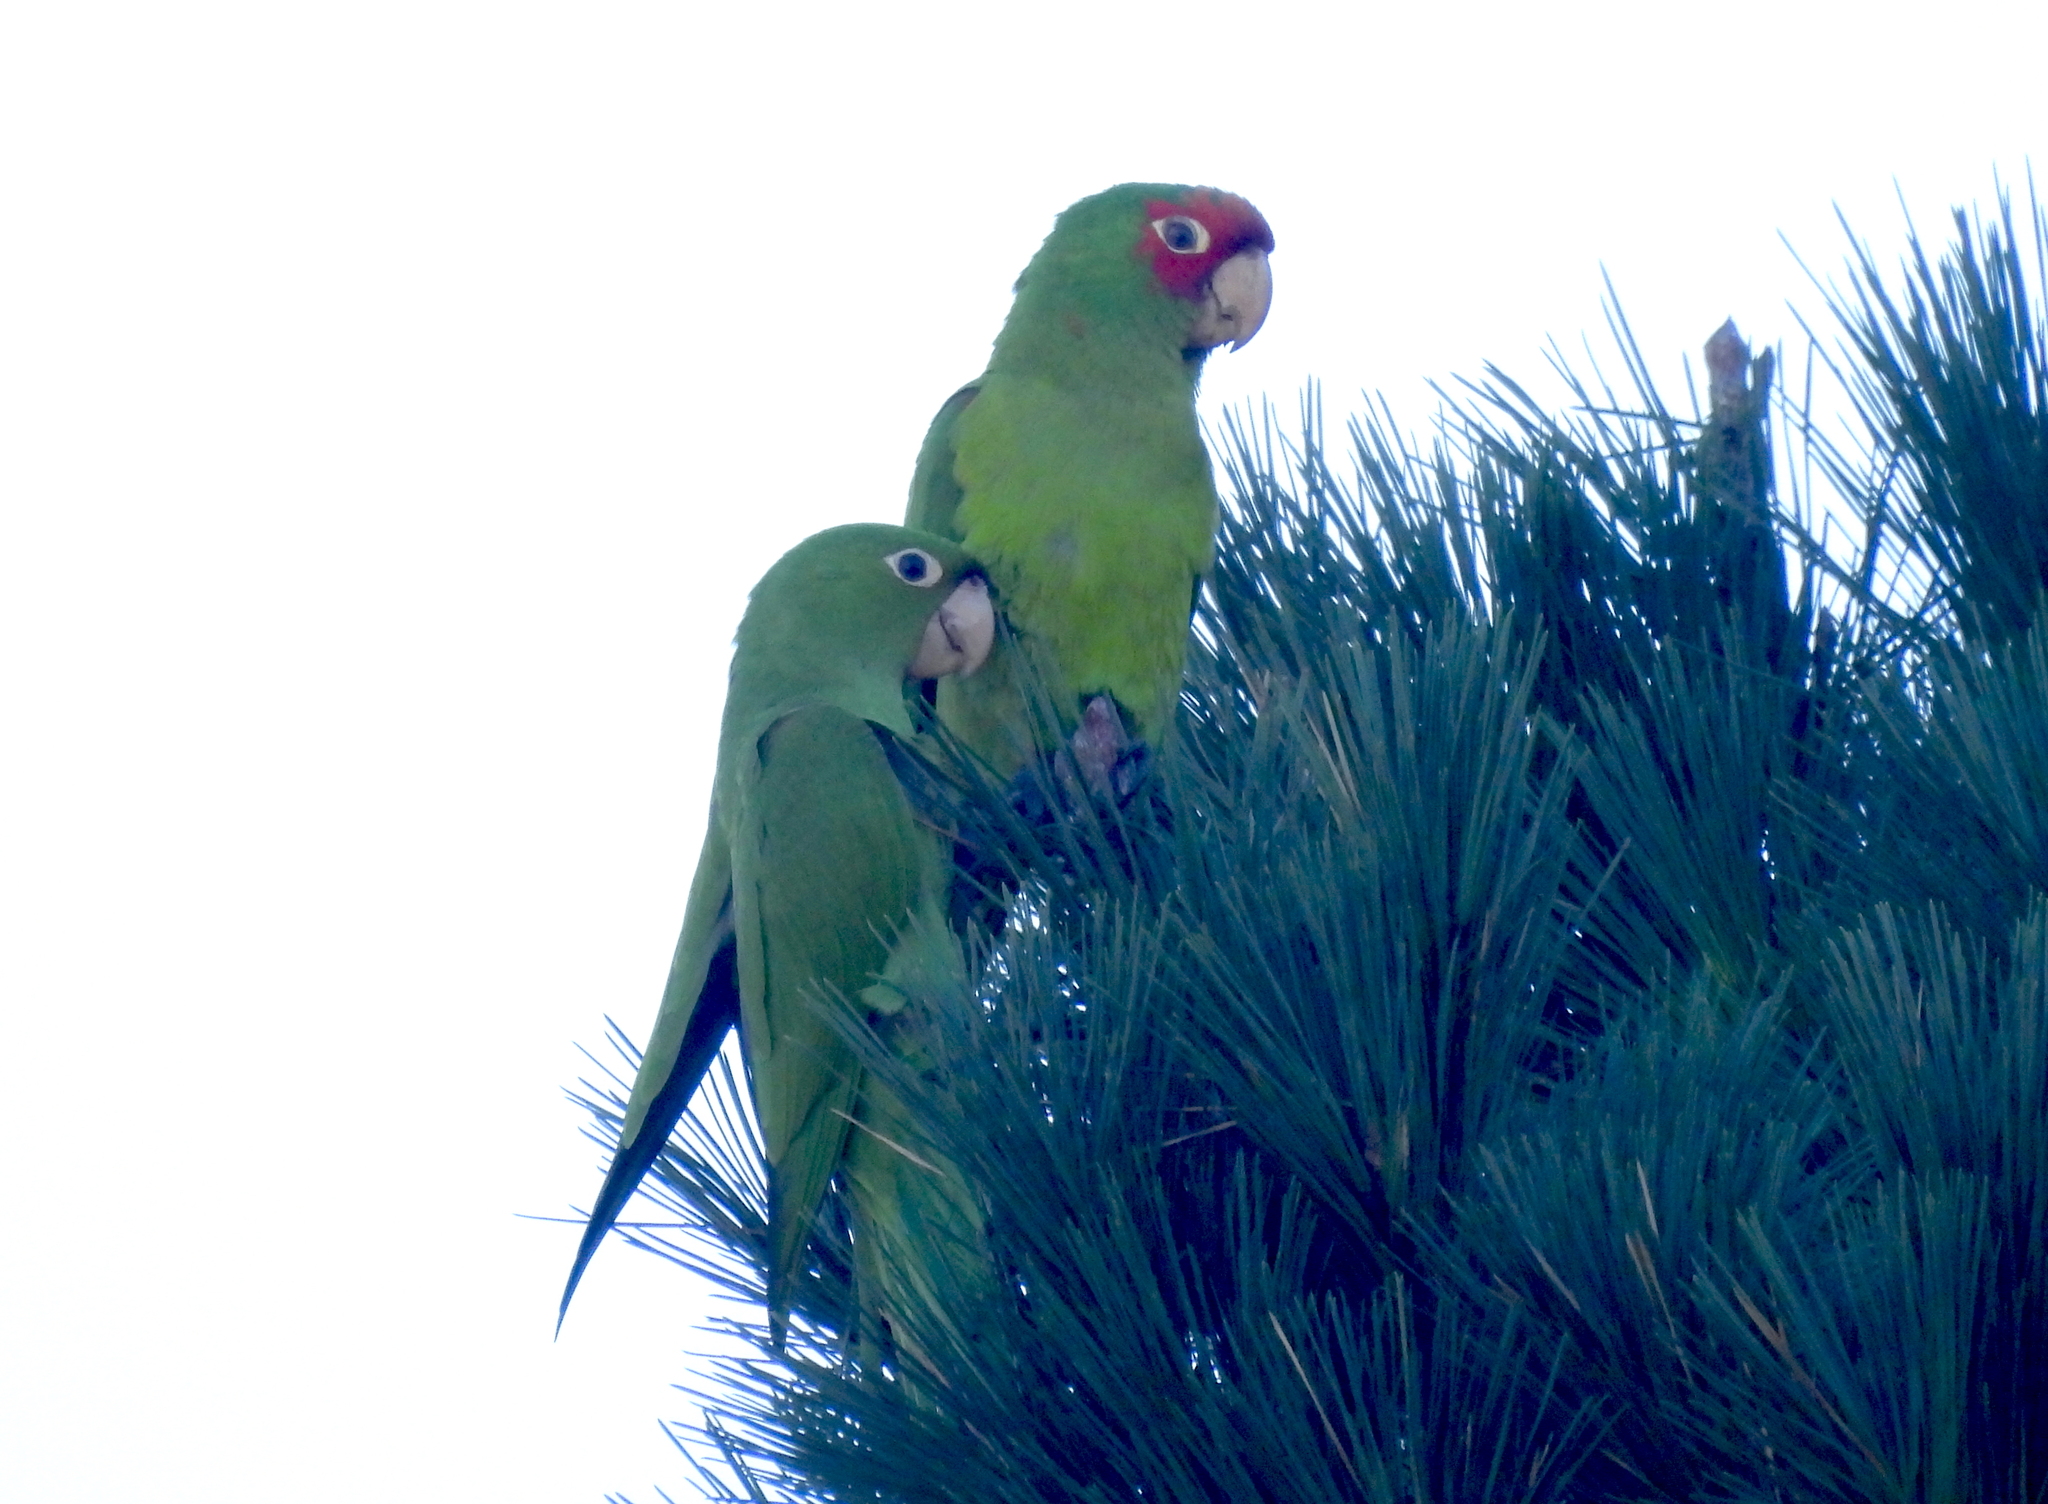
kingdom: Animalia
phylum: Chordata
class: Aves
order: Psittaciformes
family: Psittacidae
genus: Aratinga
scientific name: Aratinga erythrogenys
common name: Red-masked parakeet
